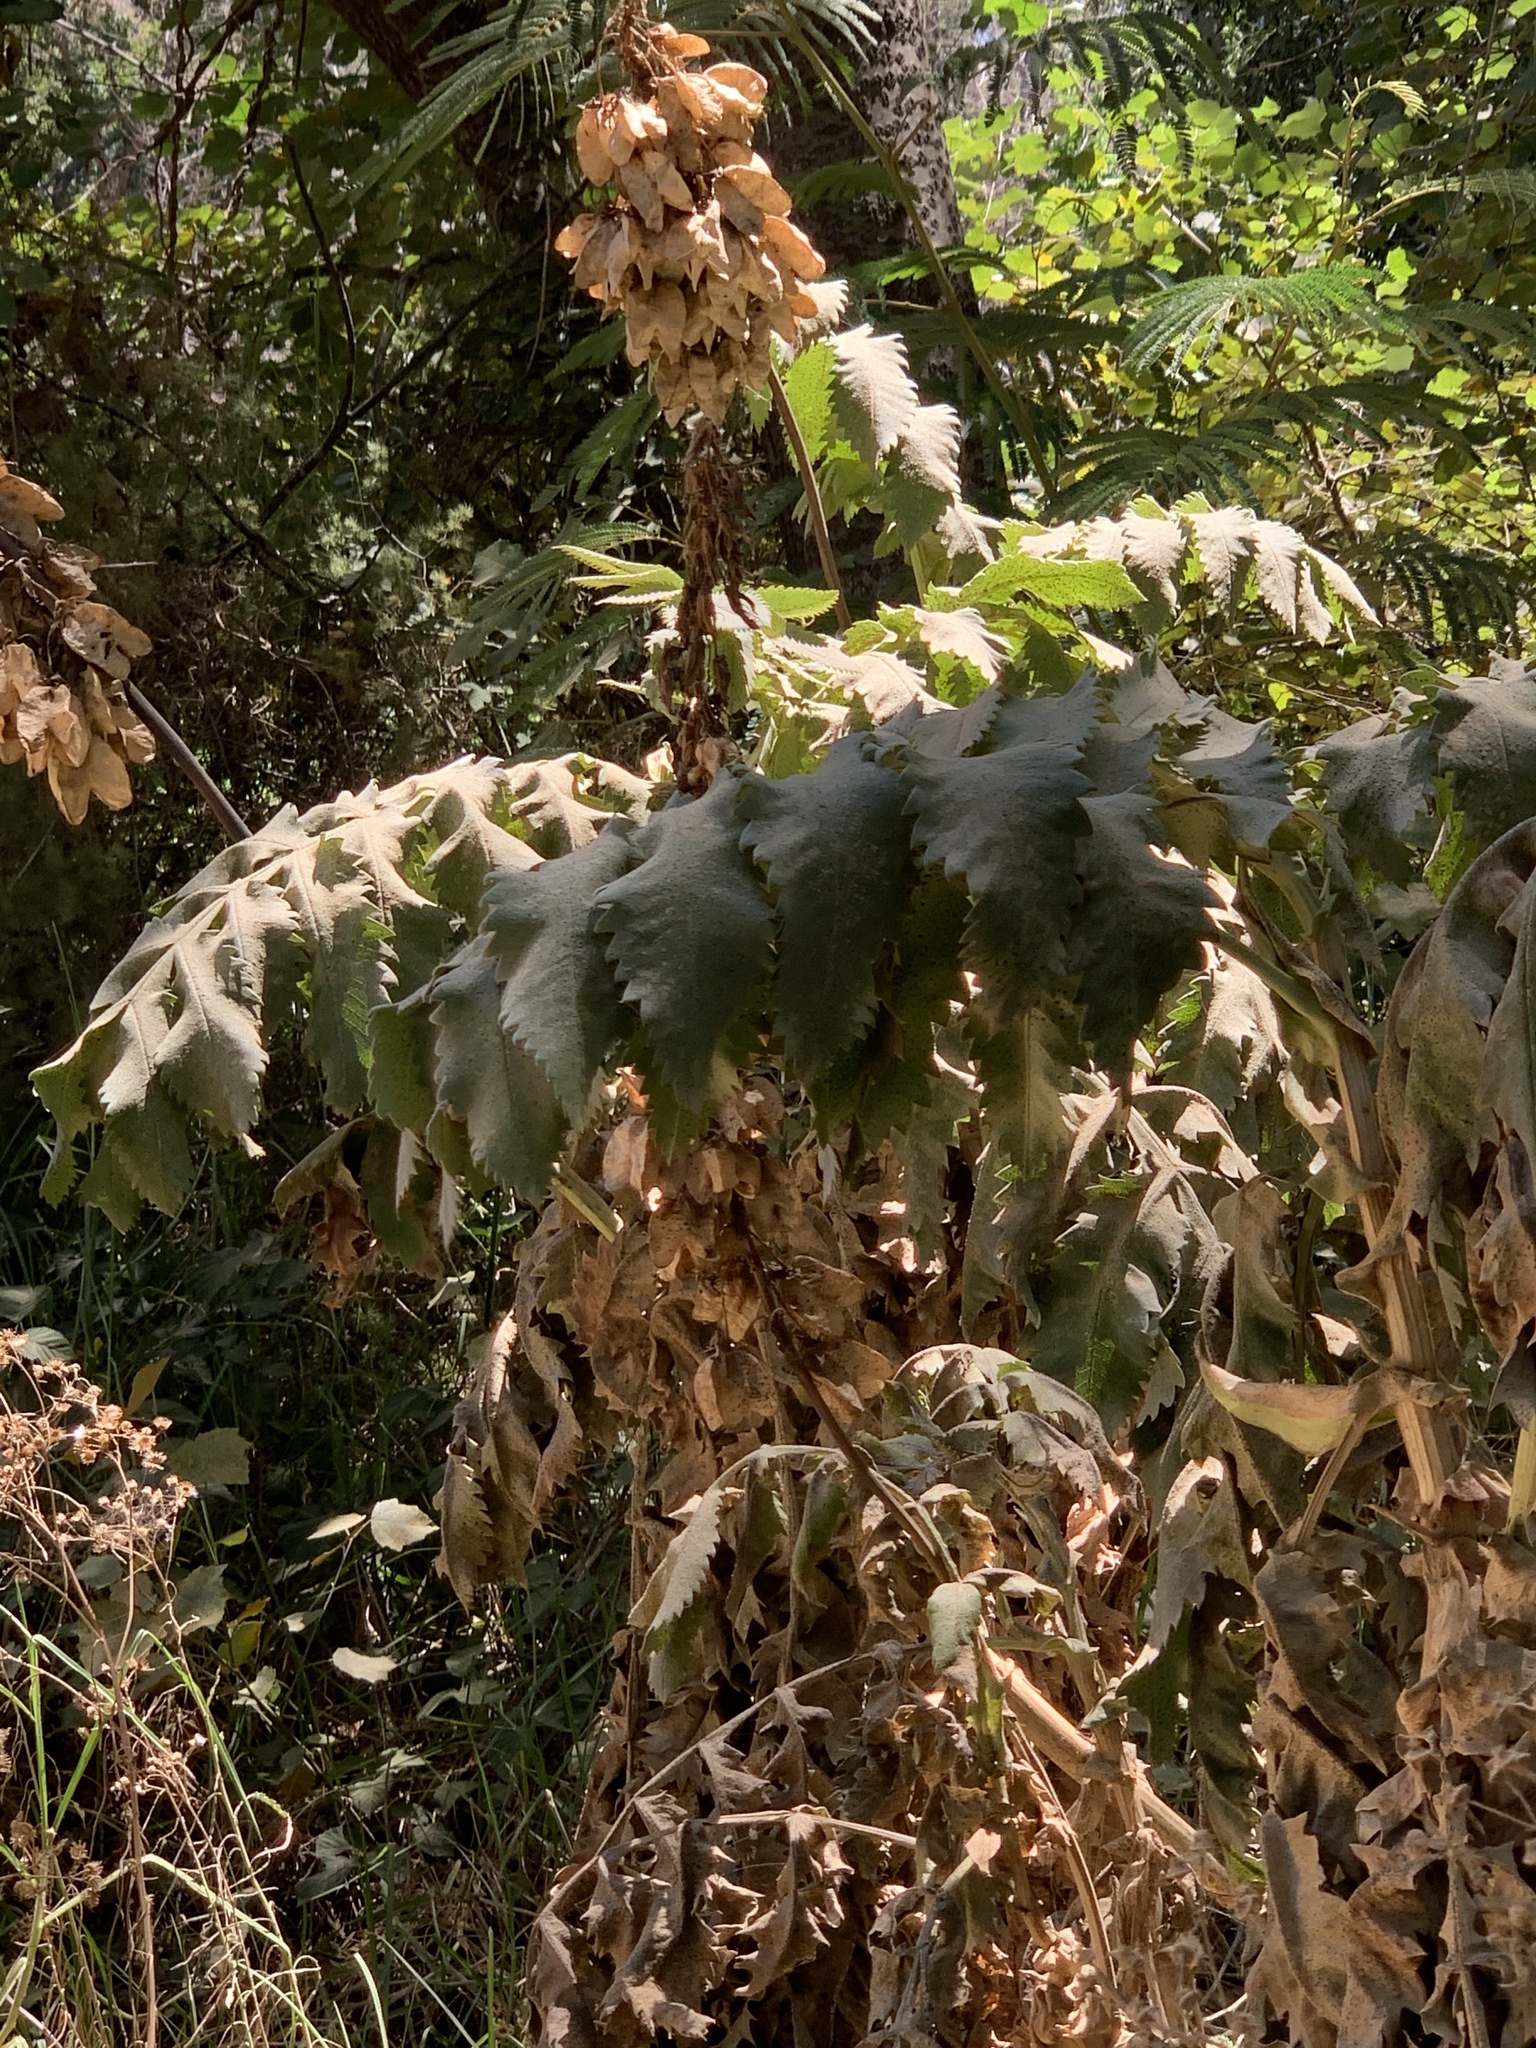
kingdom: Plantae
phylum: Tracheophyta
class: Magnoliopsida
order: Geraniales
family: Melianthaceae
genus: Melianthus
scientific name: Melianthus major
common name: Honey-flower
